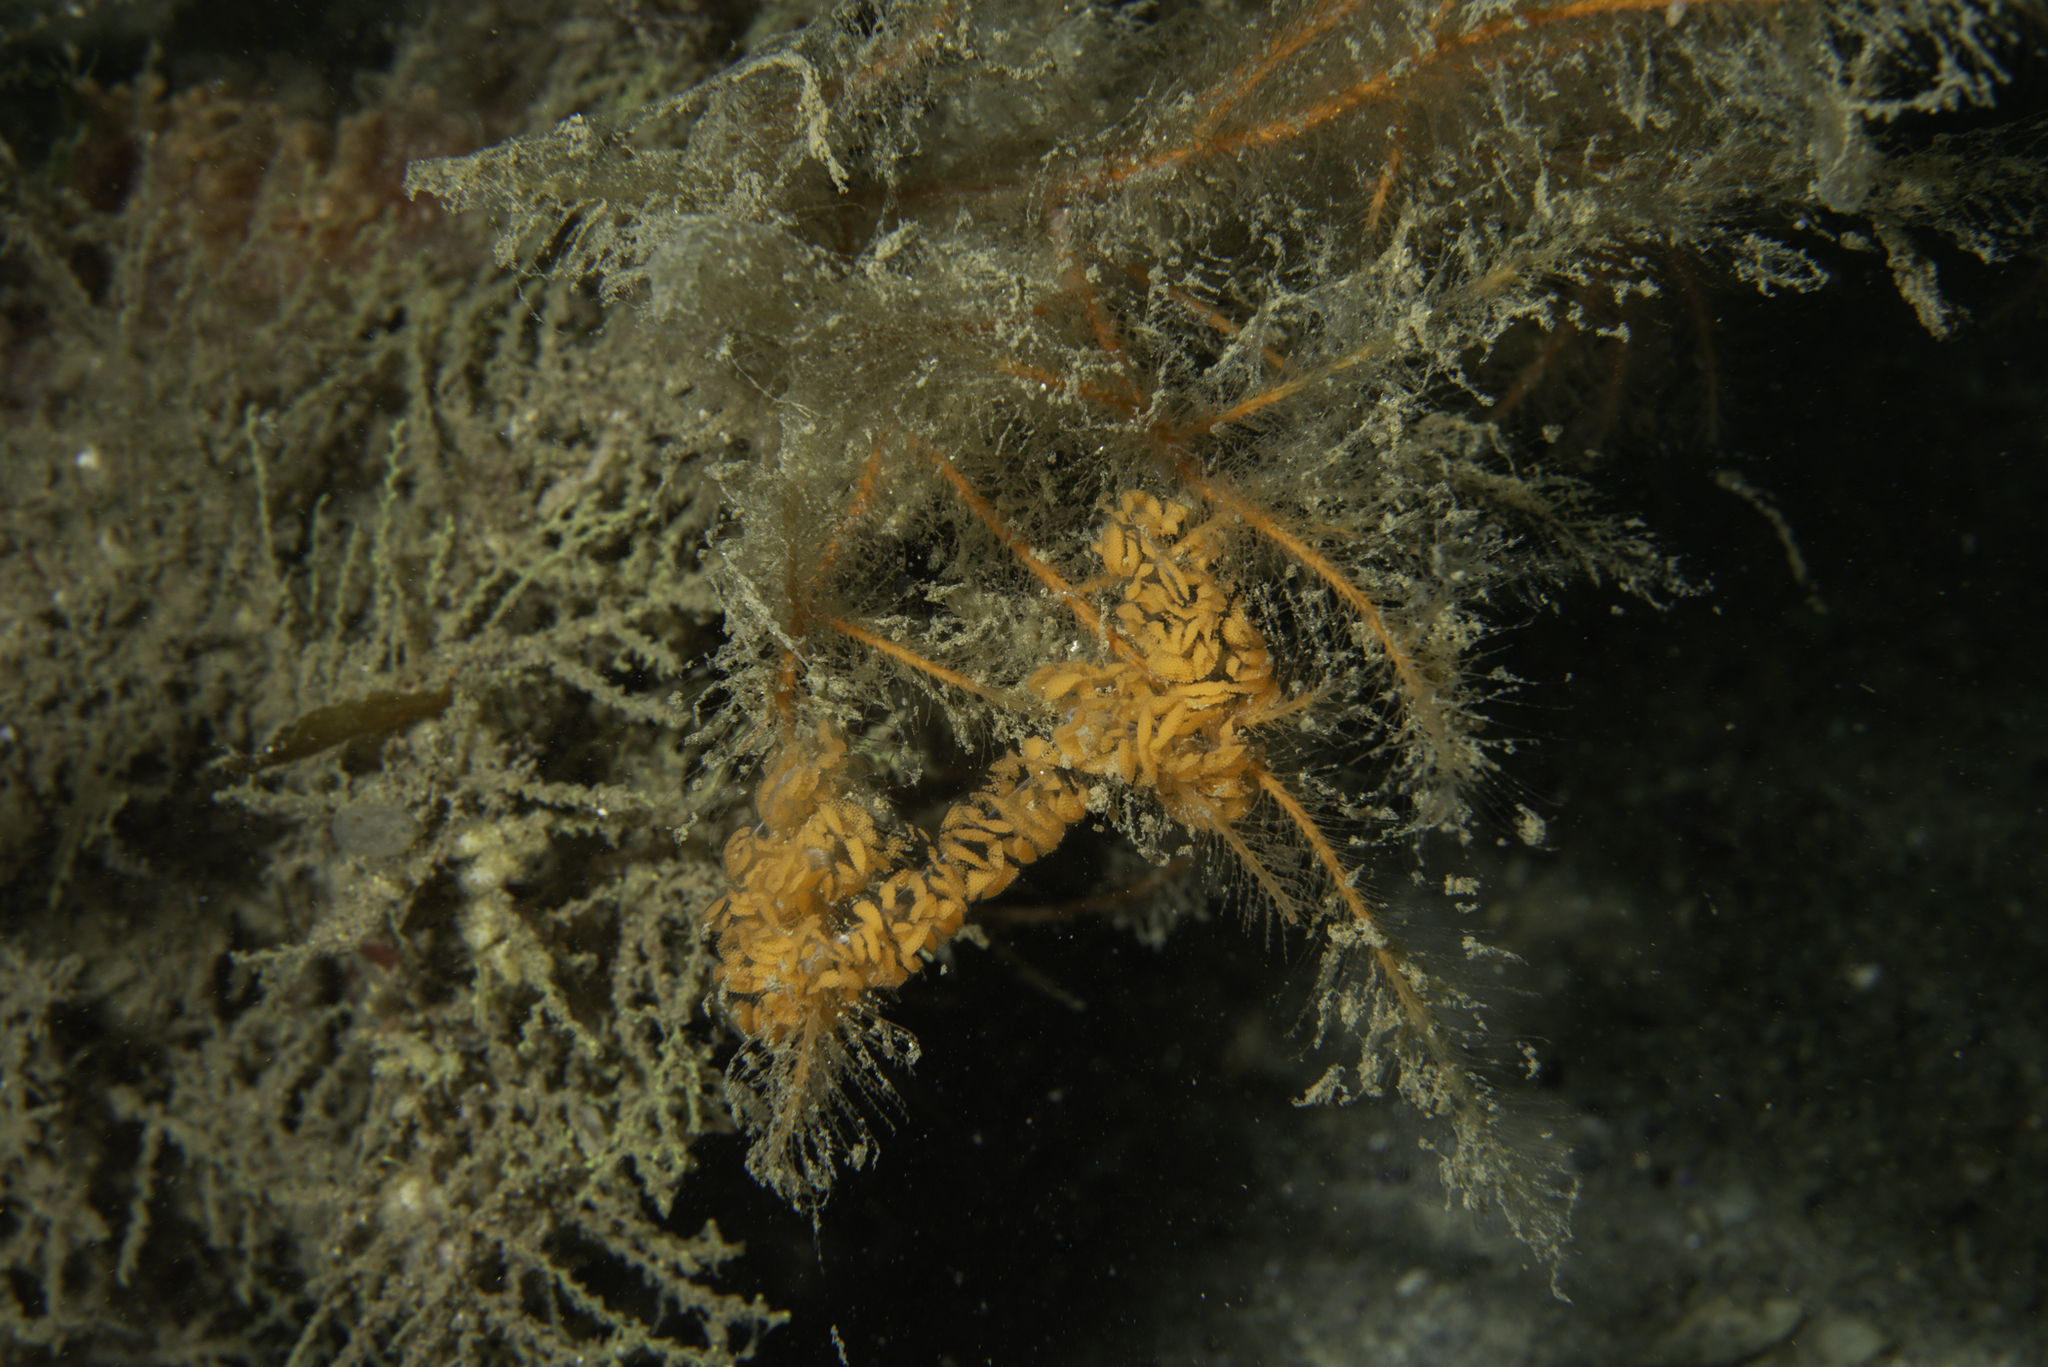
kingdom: Animalia
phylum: Mollusca
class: Gastropoda
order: Nudibranchia
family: Lomanotidae
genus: Lomanotus
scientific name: Lomanotus genei
